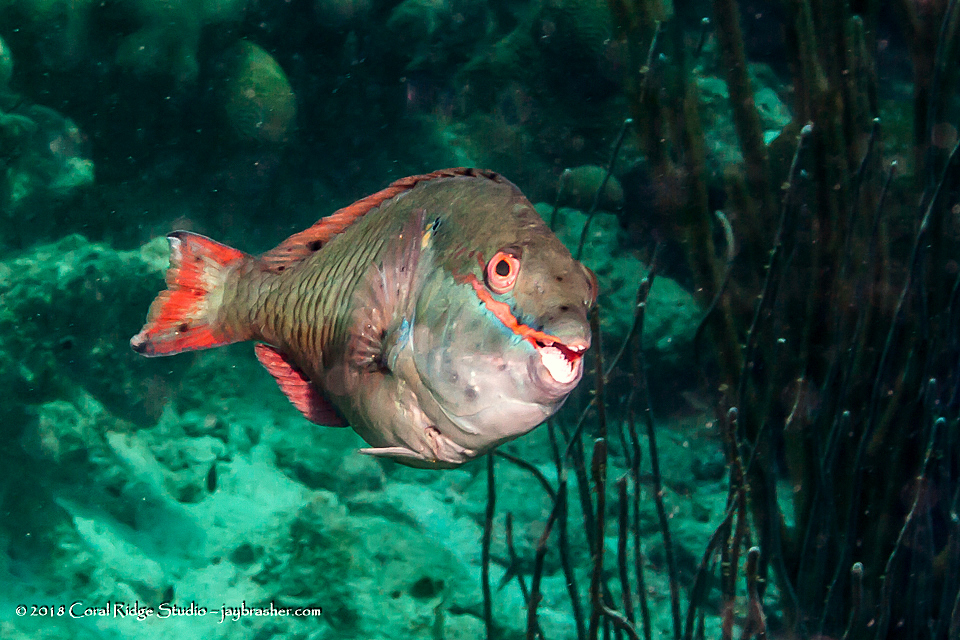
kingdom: Animalia
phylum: Chordata
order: Perciformes
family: Scaridae
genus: Sparisoma
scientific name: Sparisoma aurofrenatum
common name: Redband parrotfish
